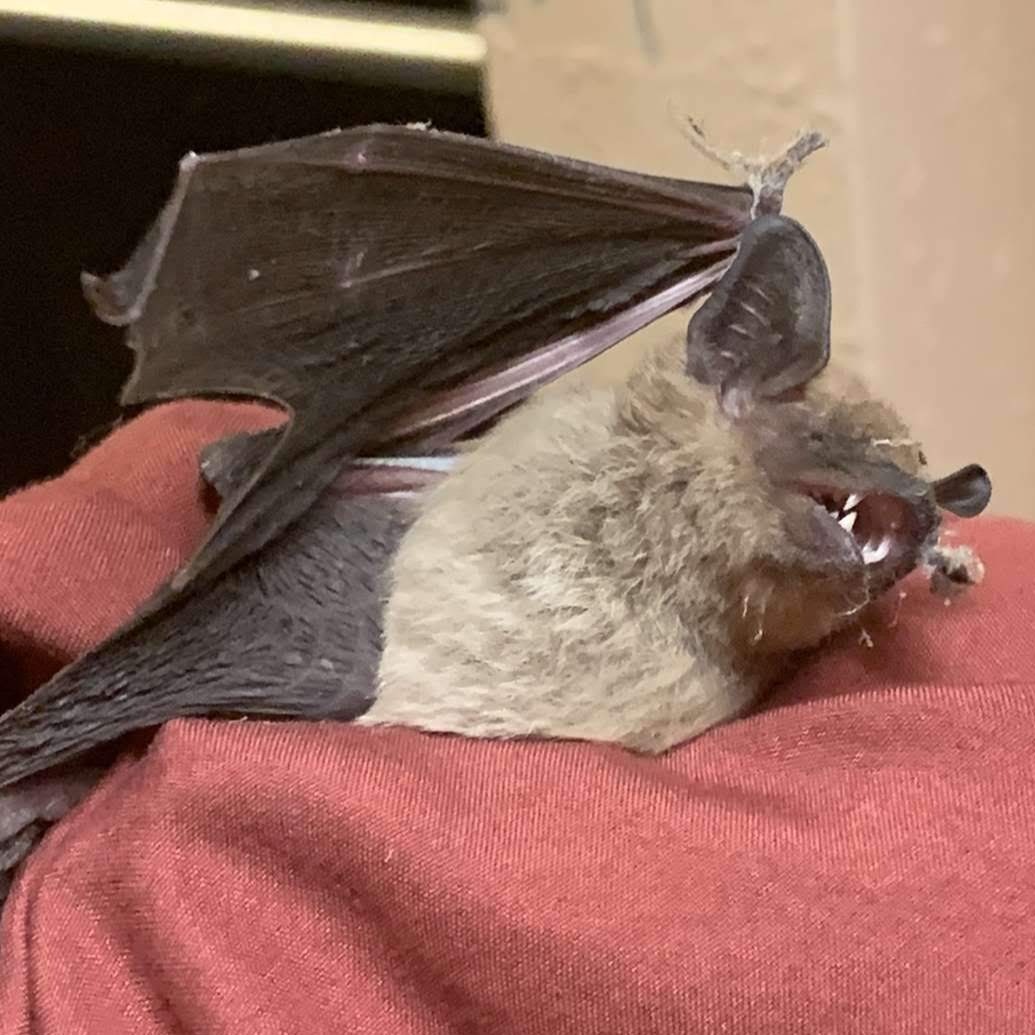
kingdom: Animalia
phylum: Chordata
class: Mammalia
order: Chiroptera
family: Vespertilionidae
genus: Eptesicus
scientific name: Eptesicus fuscus
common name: Big brown bat
